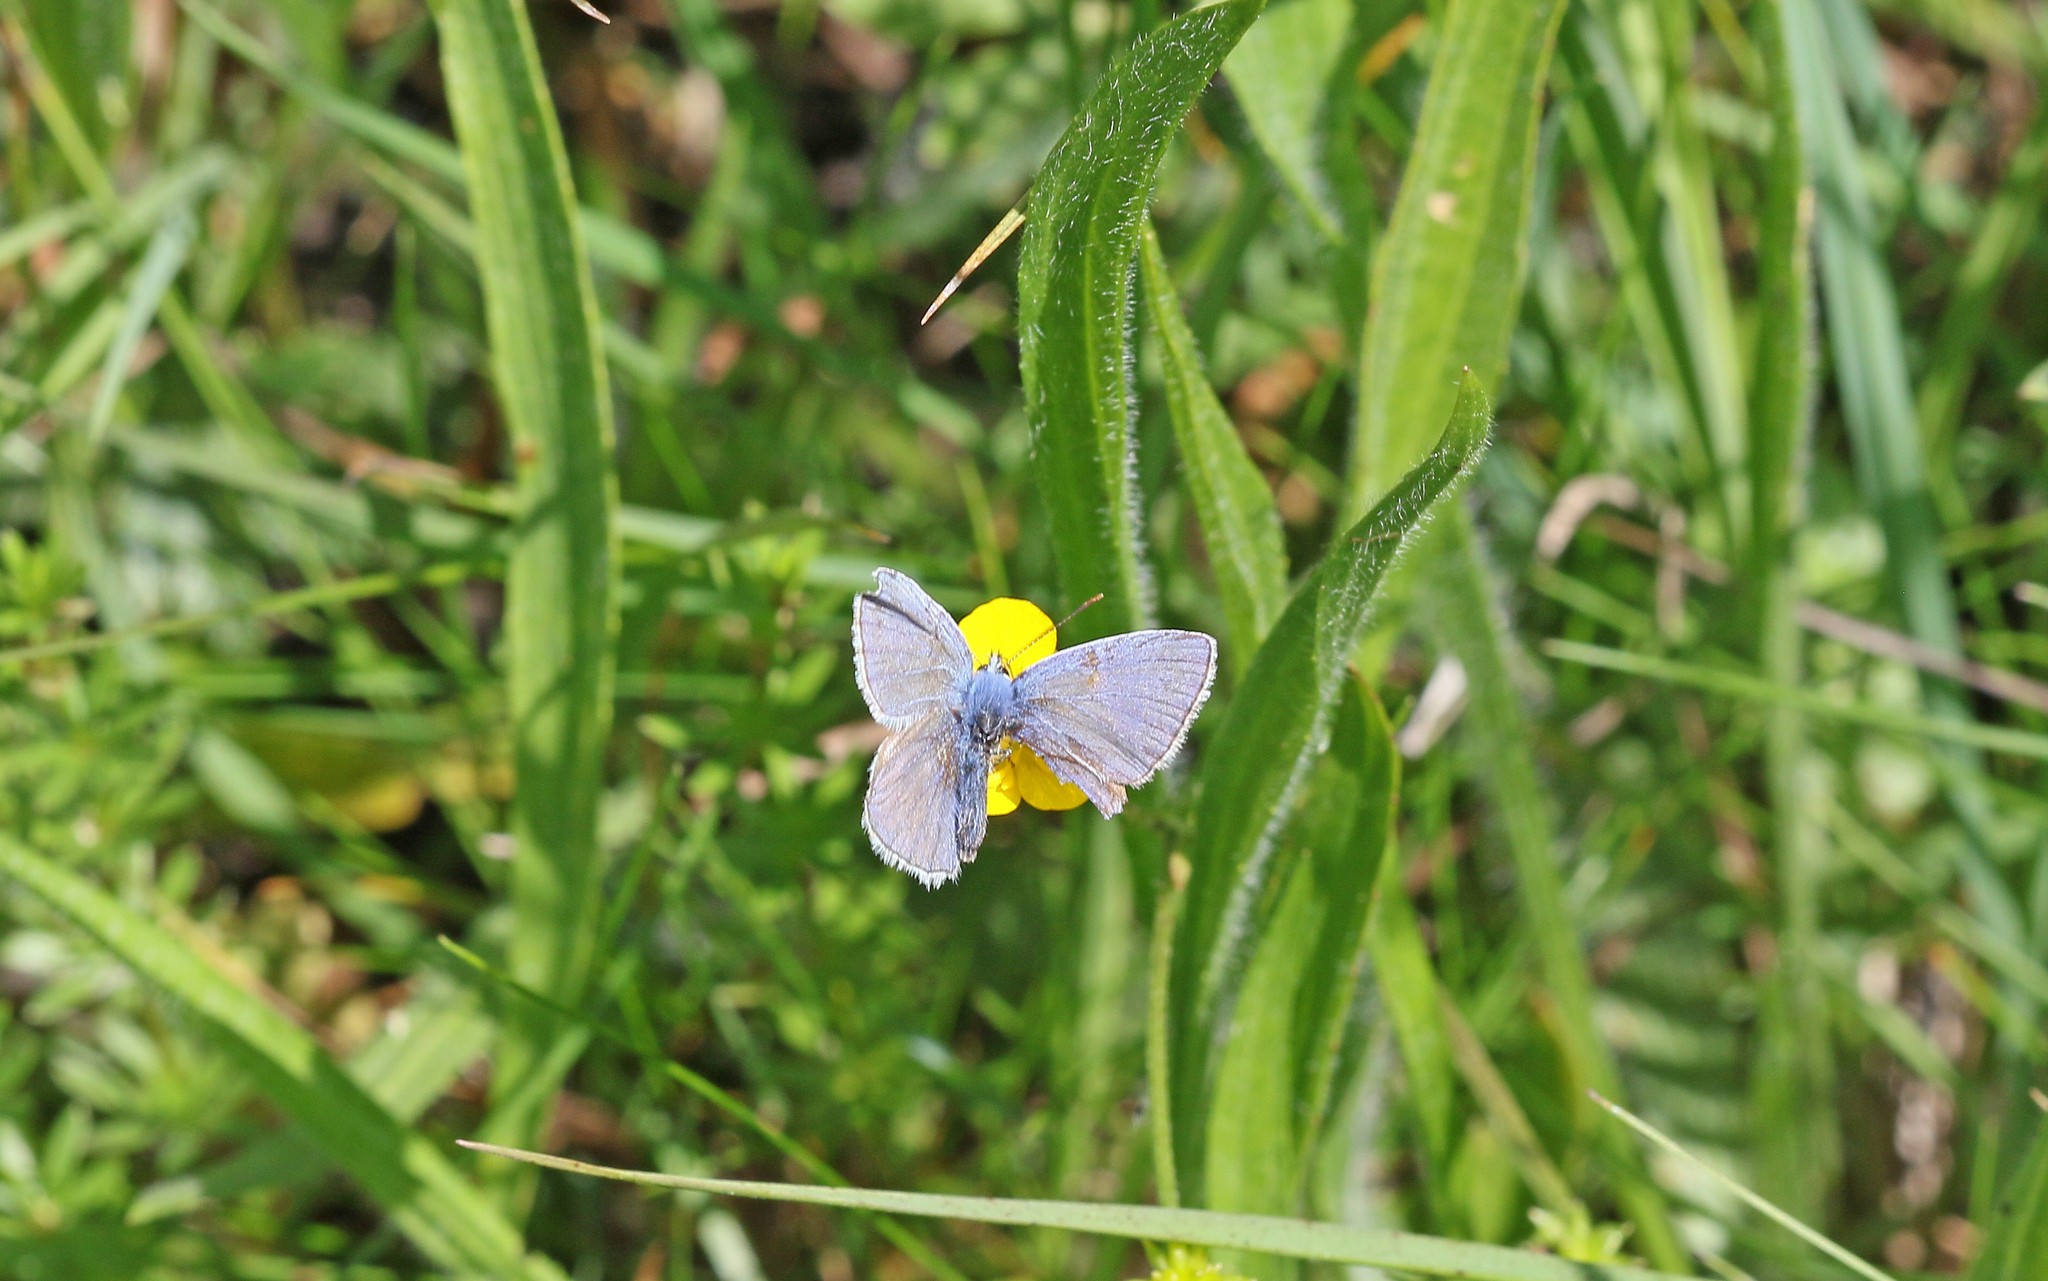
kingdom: Animalia
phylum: Arthropoda
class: Insecta
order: Lepidoptera
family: Lycaenidae
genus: Polyommatus
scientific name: Polyommatus icarus
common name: Common blue
